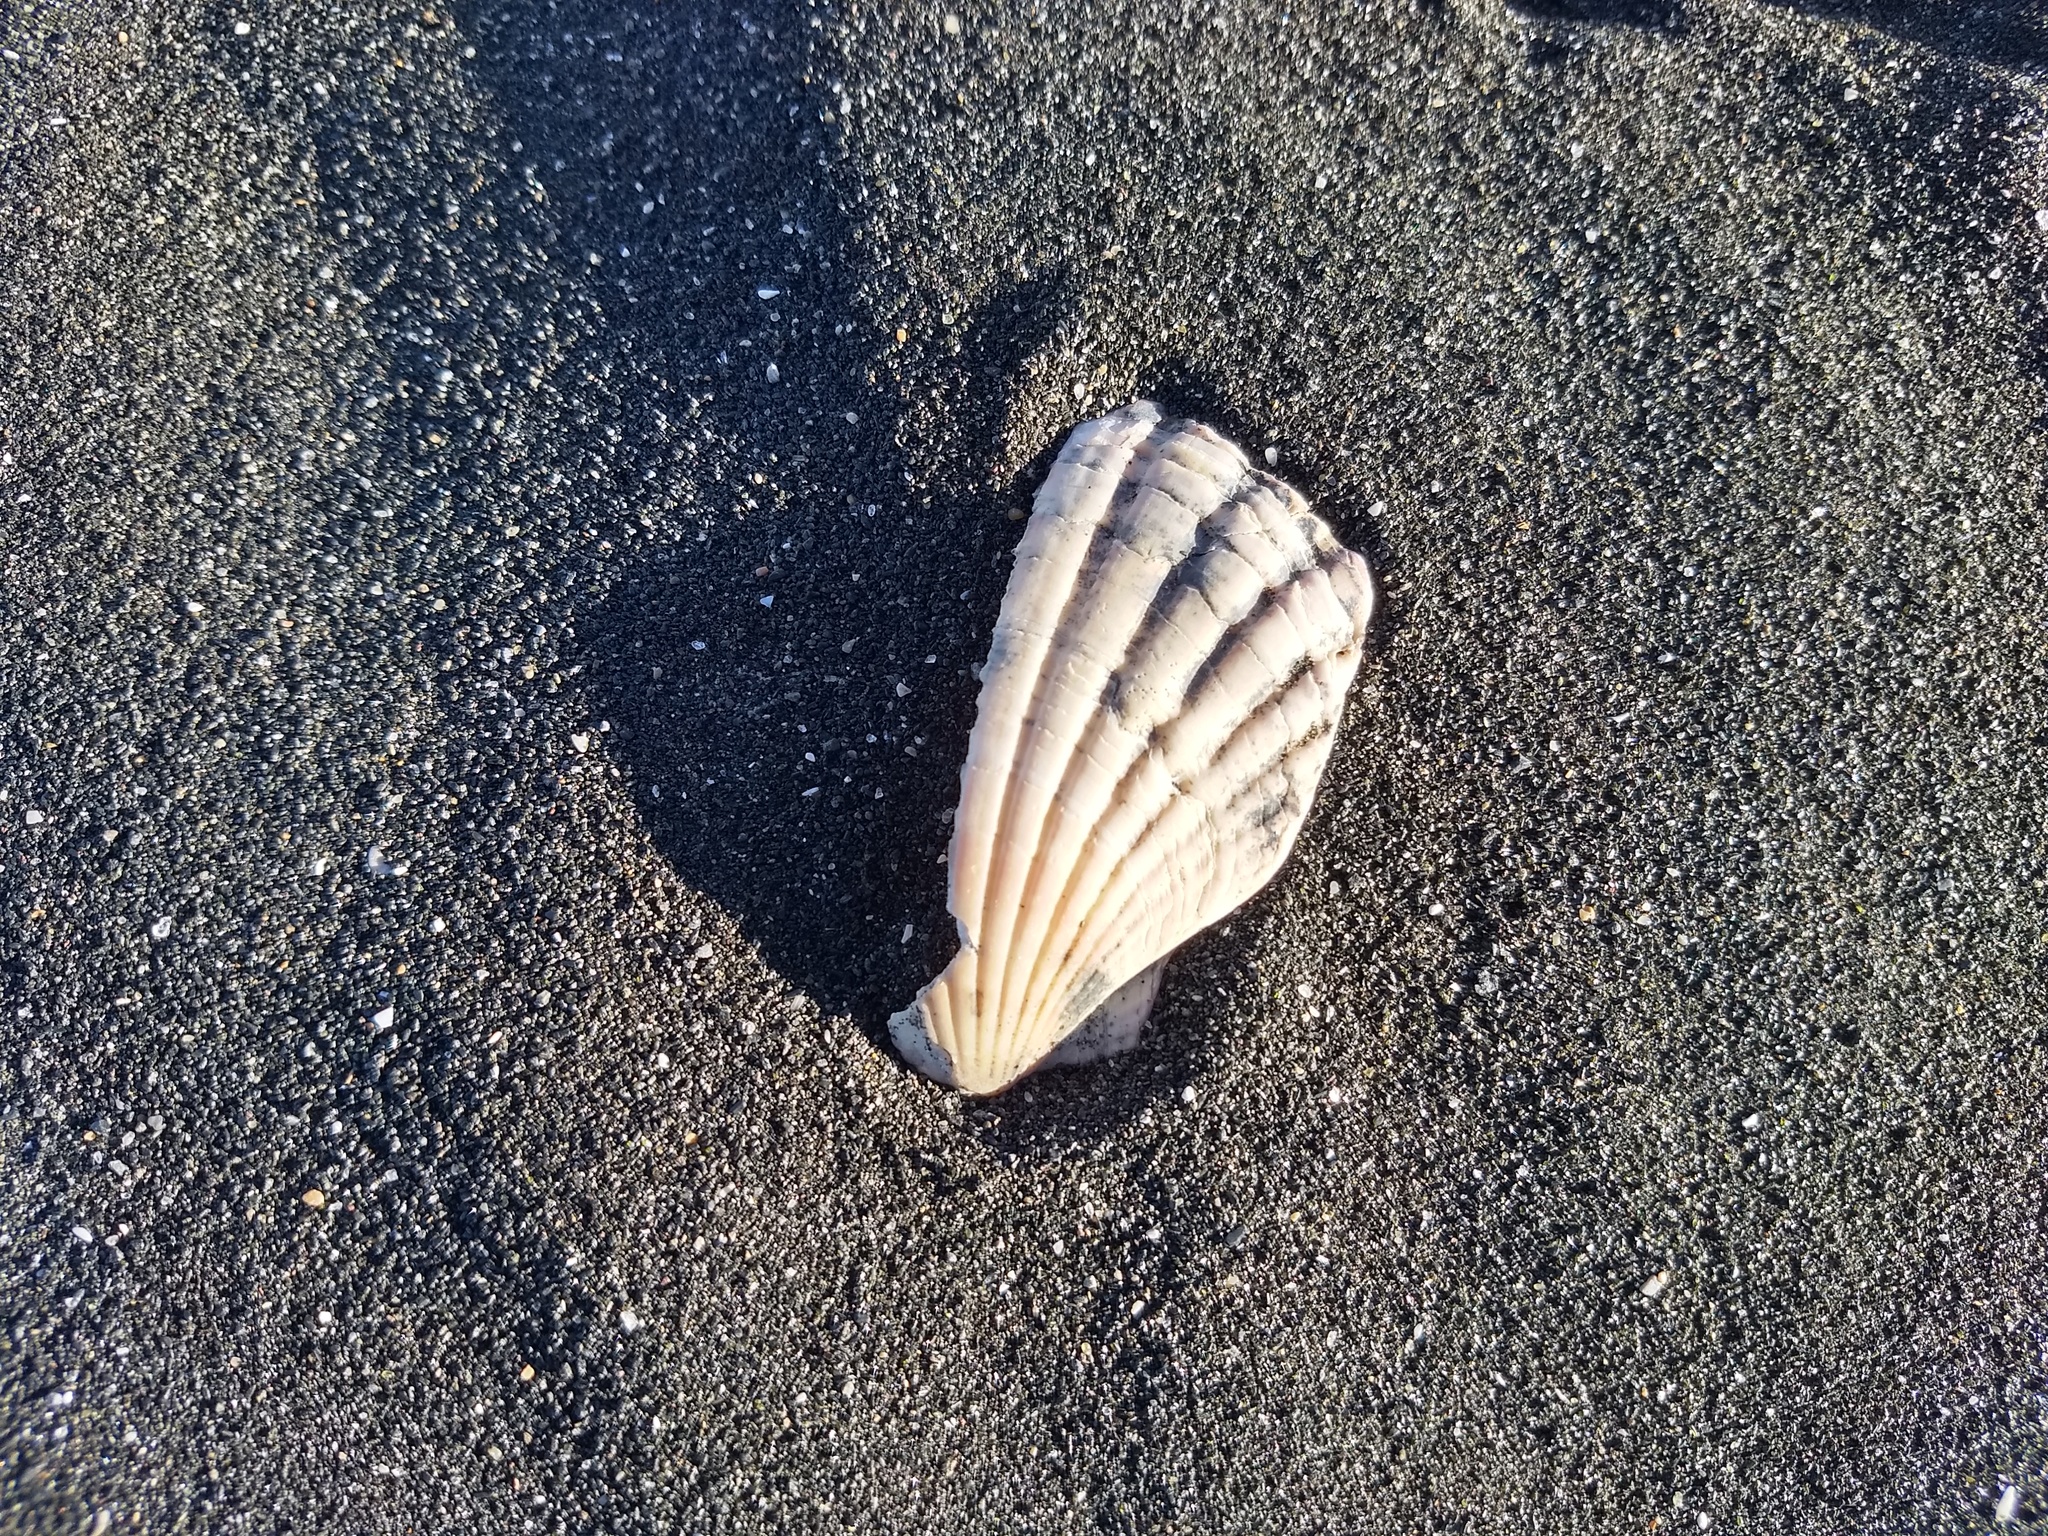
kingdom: Animalia
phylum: Mollusca
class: Bivalvia
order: Pectinida
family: Pectinidae
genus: Pecten
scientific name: Pecten novaezelandiae
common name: New zealand scallop
